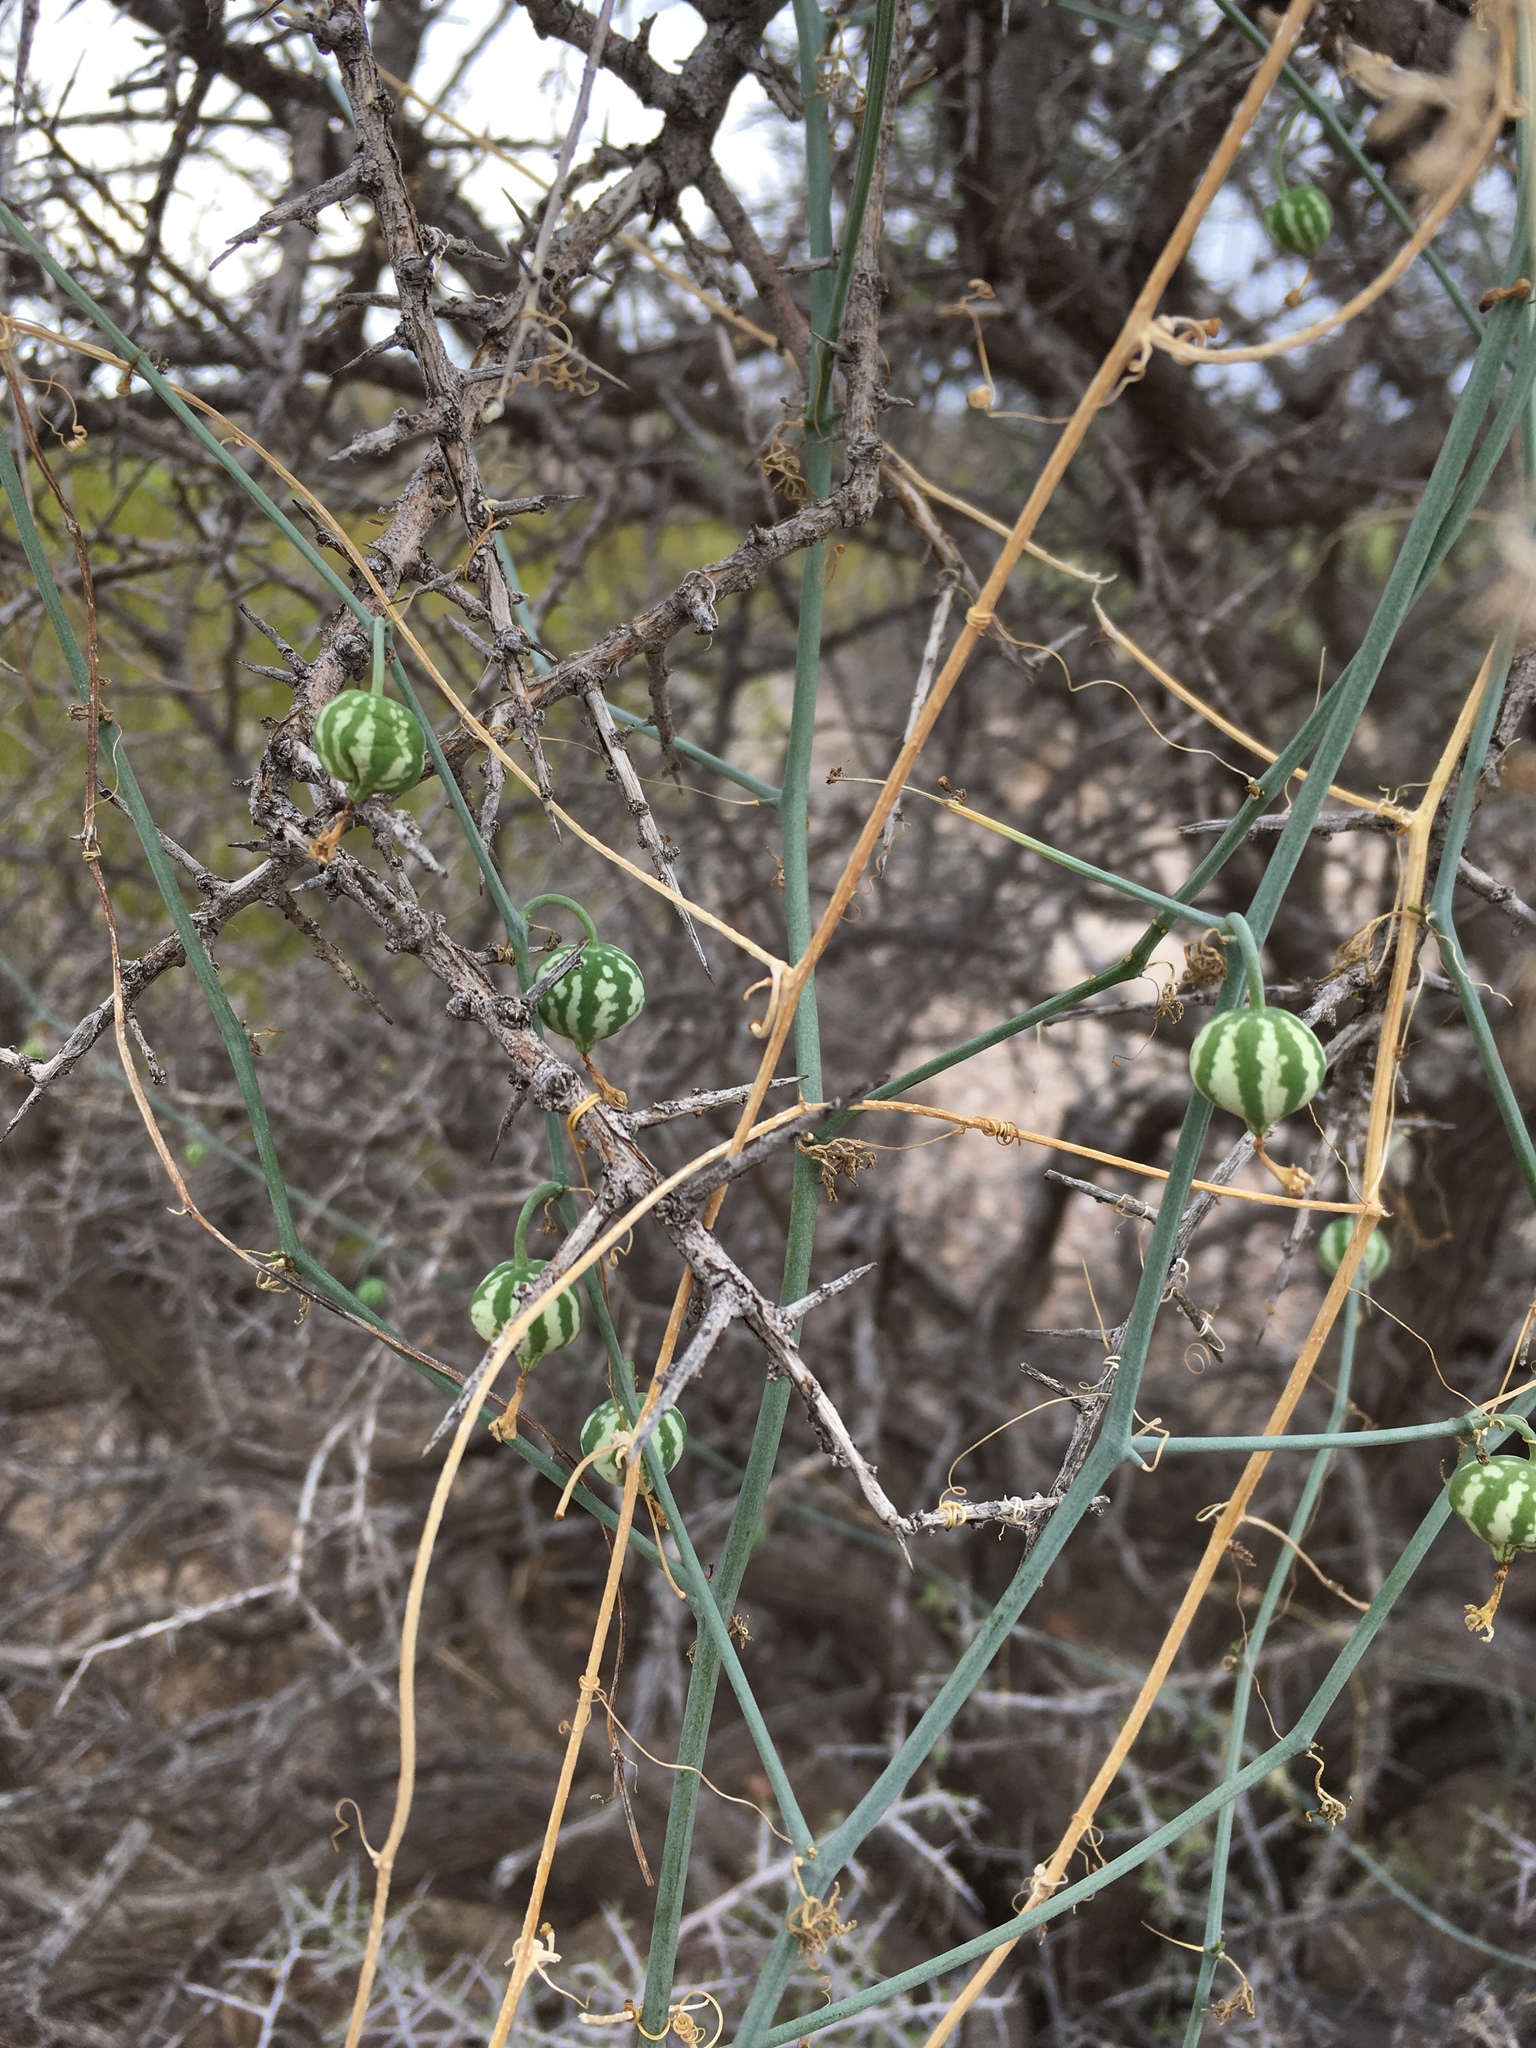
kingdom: Plantae
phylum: Tracheophyta
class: Magnoliopsida
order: Cucurbitales
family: Cucurbitaceae
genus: Ibervillea
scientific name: Ibervillea tenuisecta
